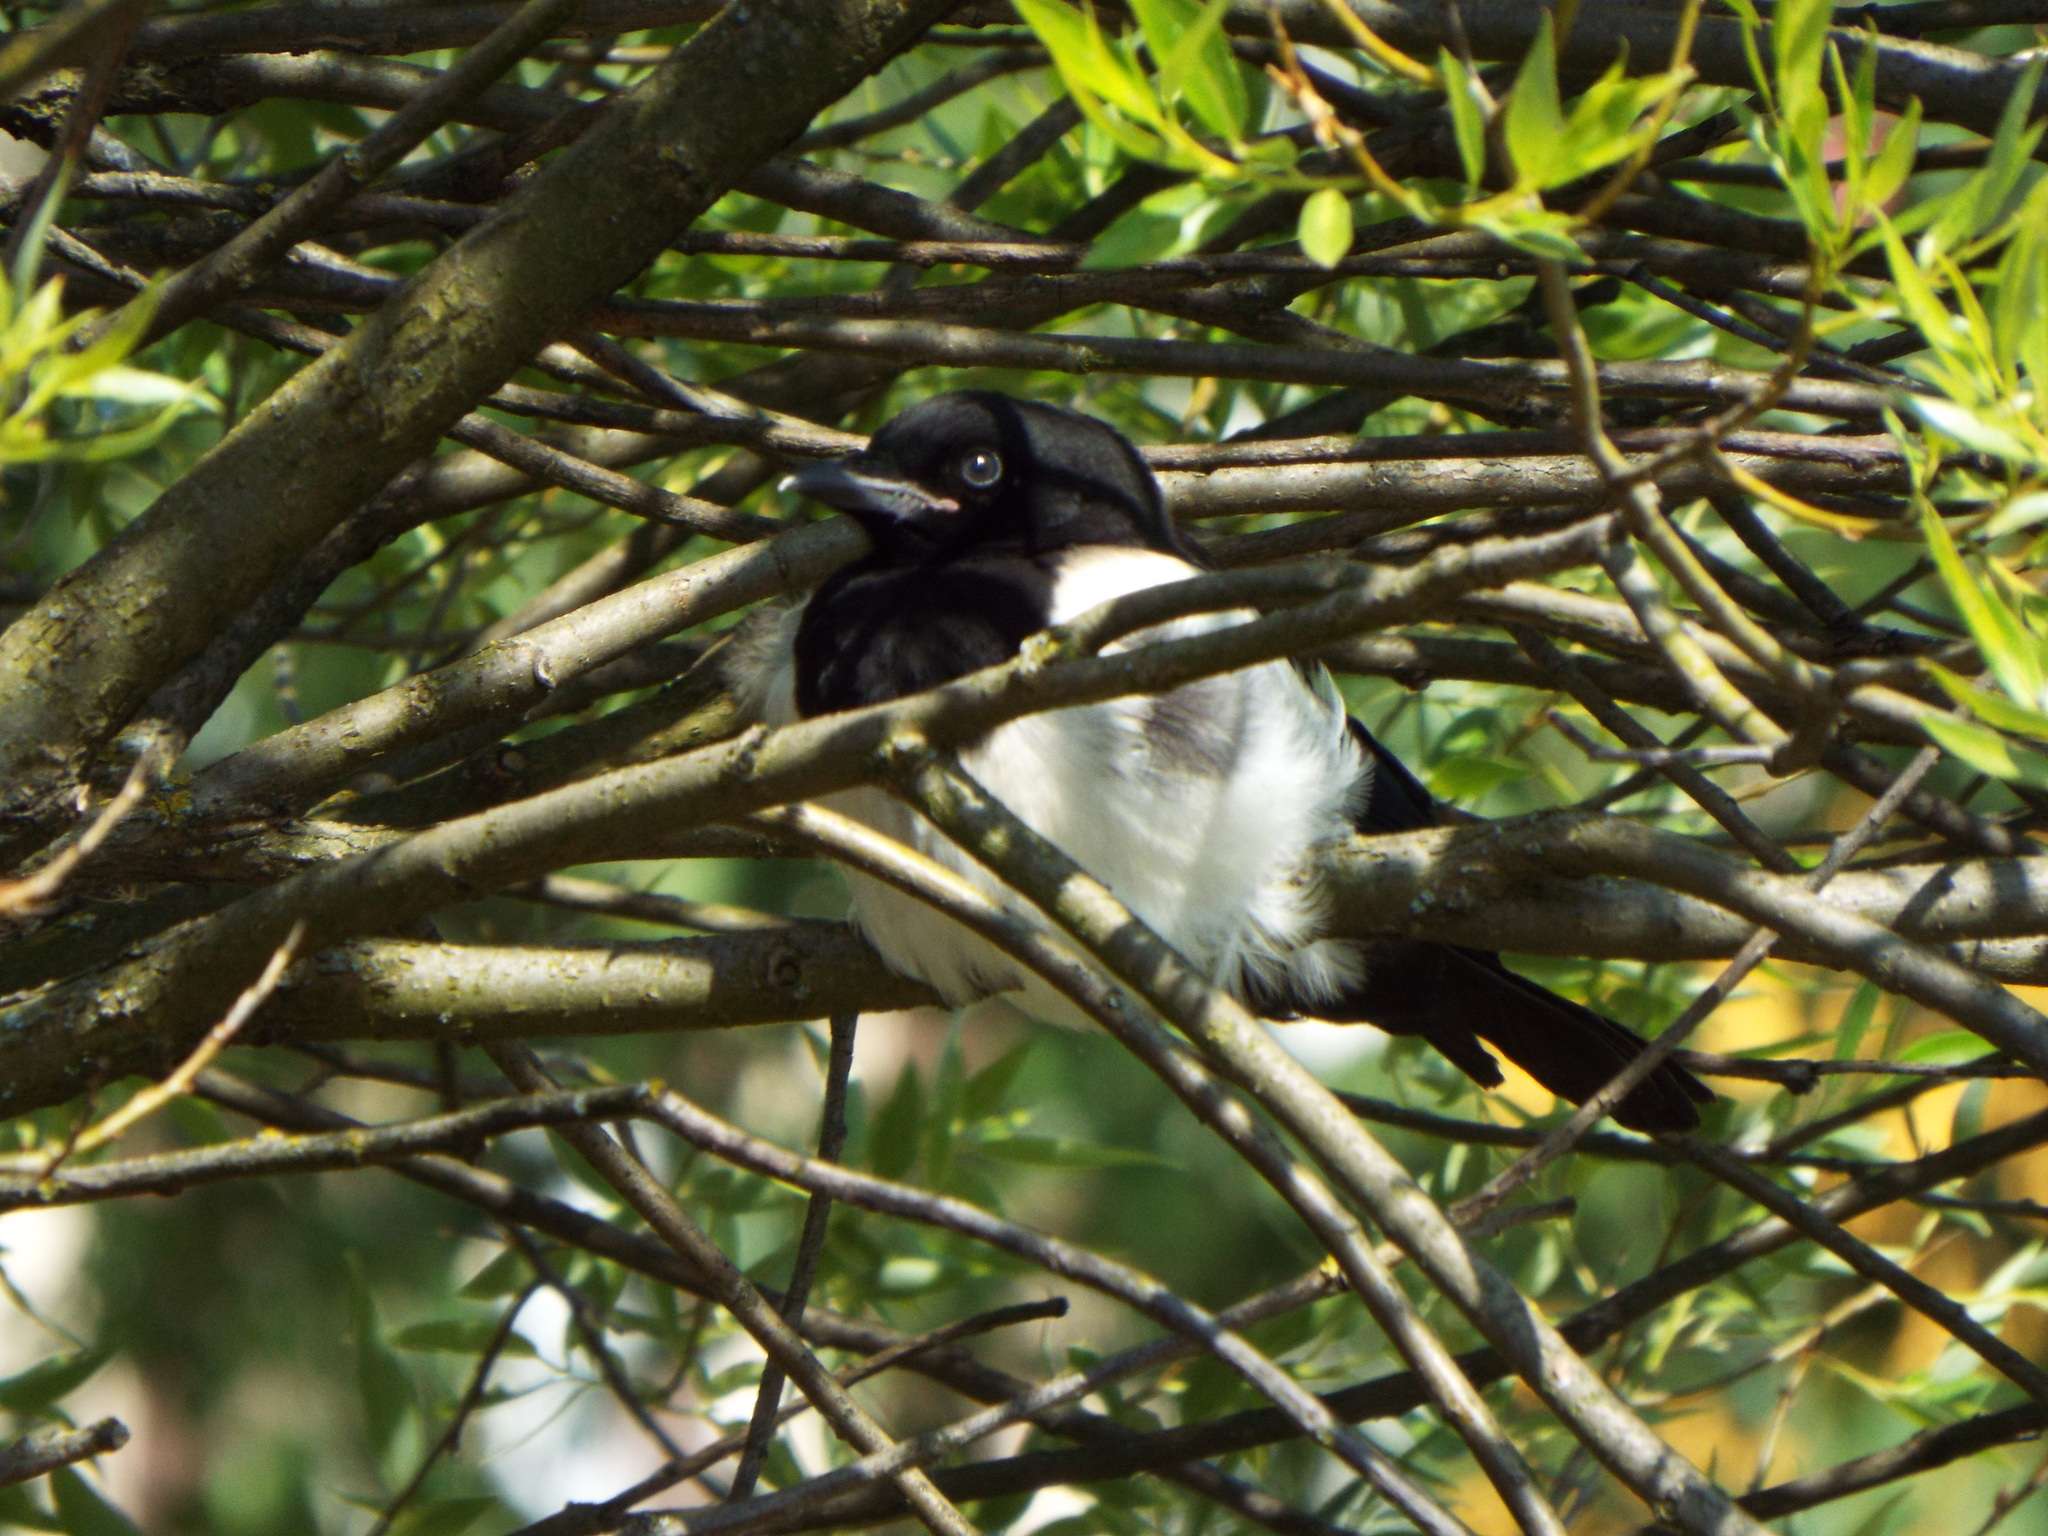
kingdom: Animalia
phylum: Chordata
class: Aves
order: Passeriformes
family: Corvidae
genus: Pica
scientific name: Pica pica
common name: Eurasian magpie
